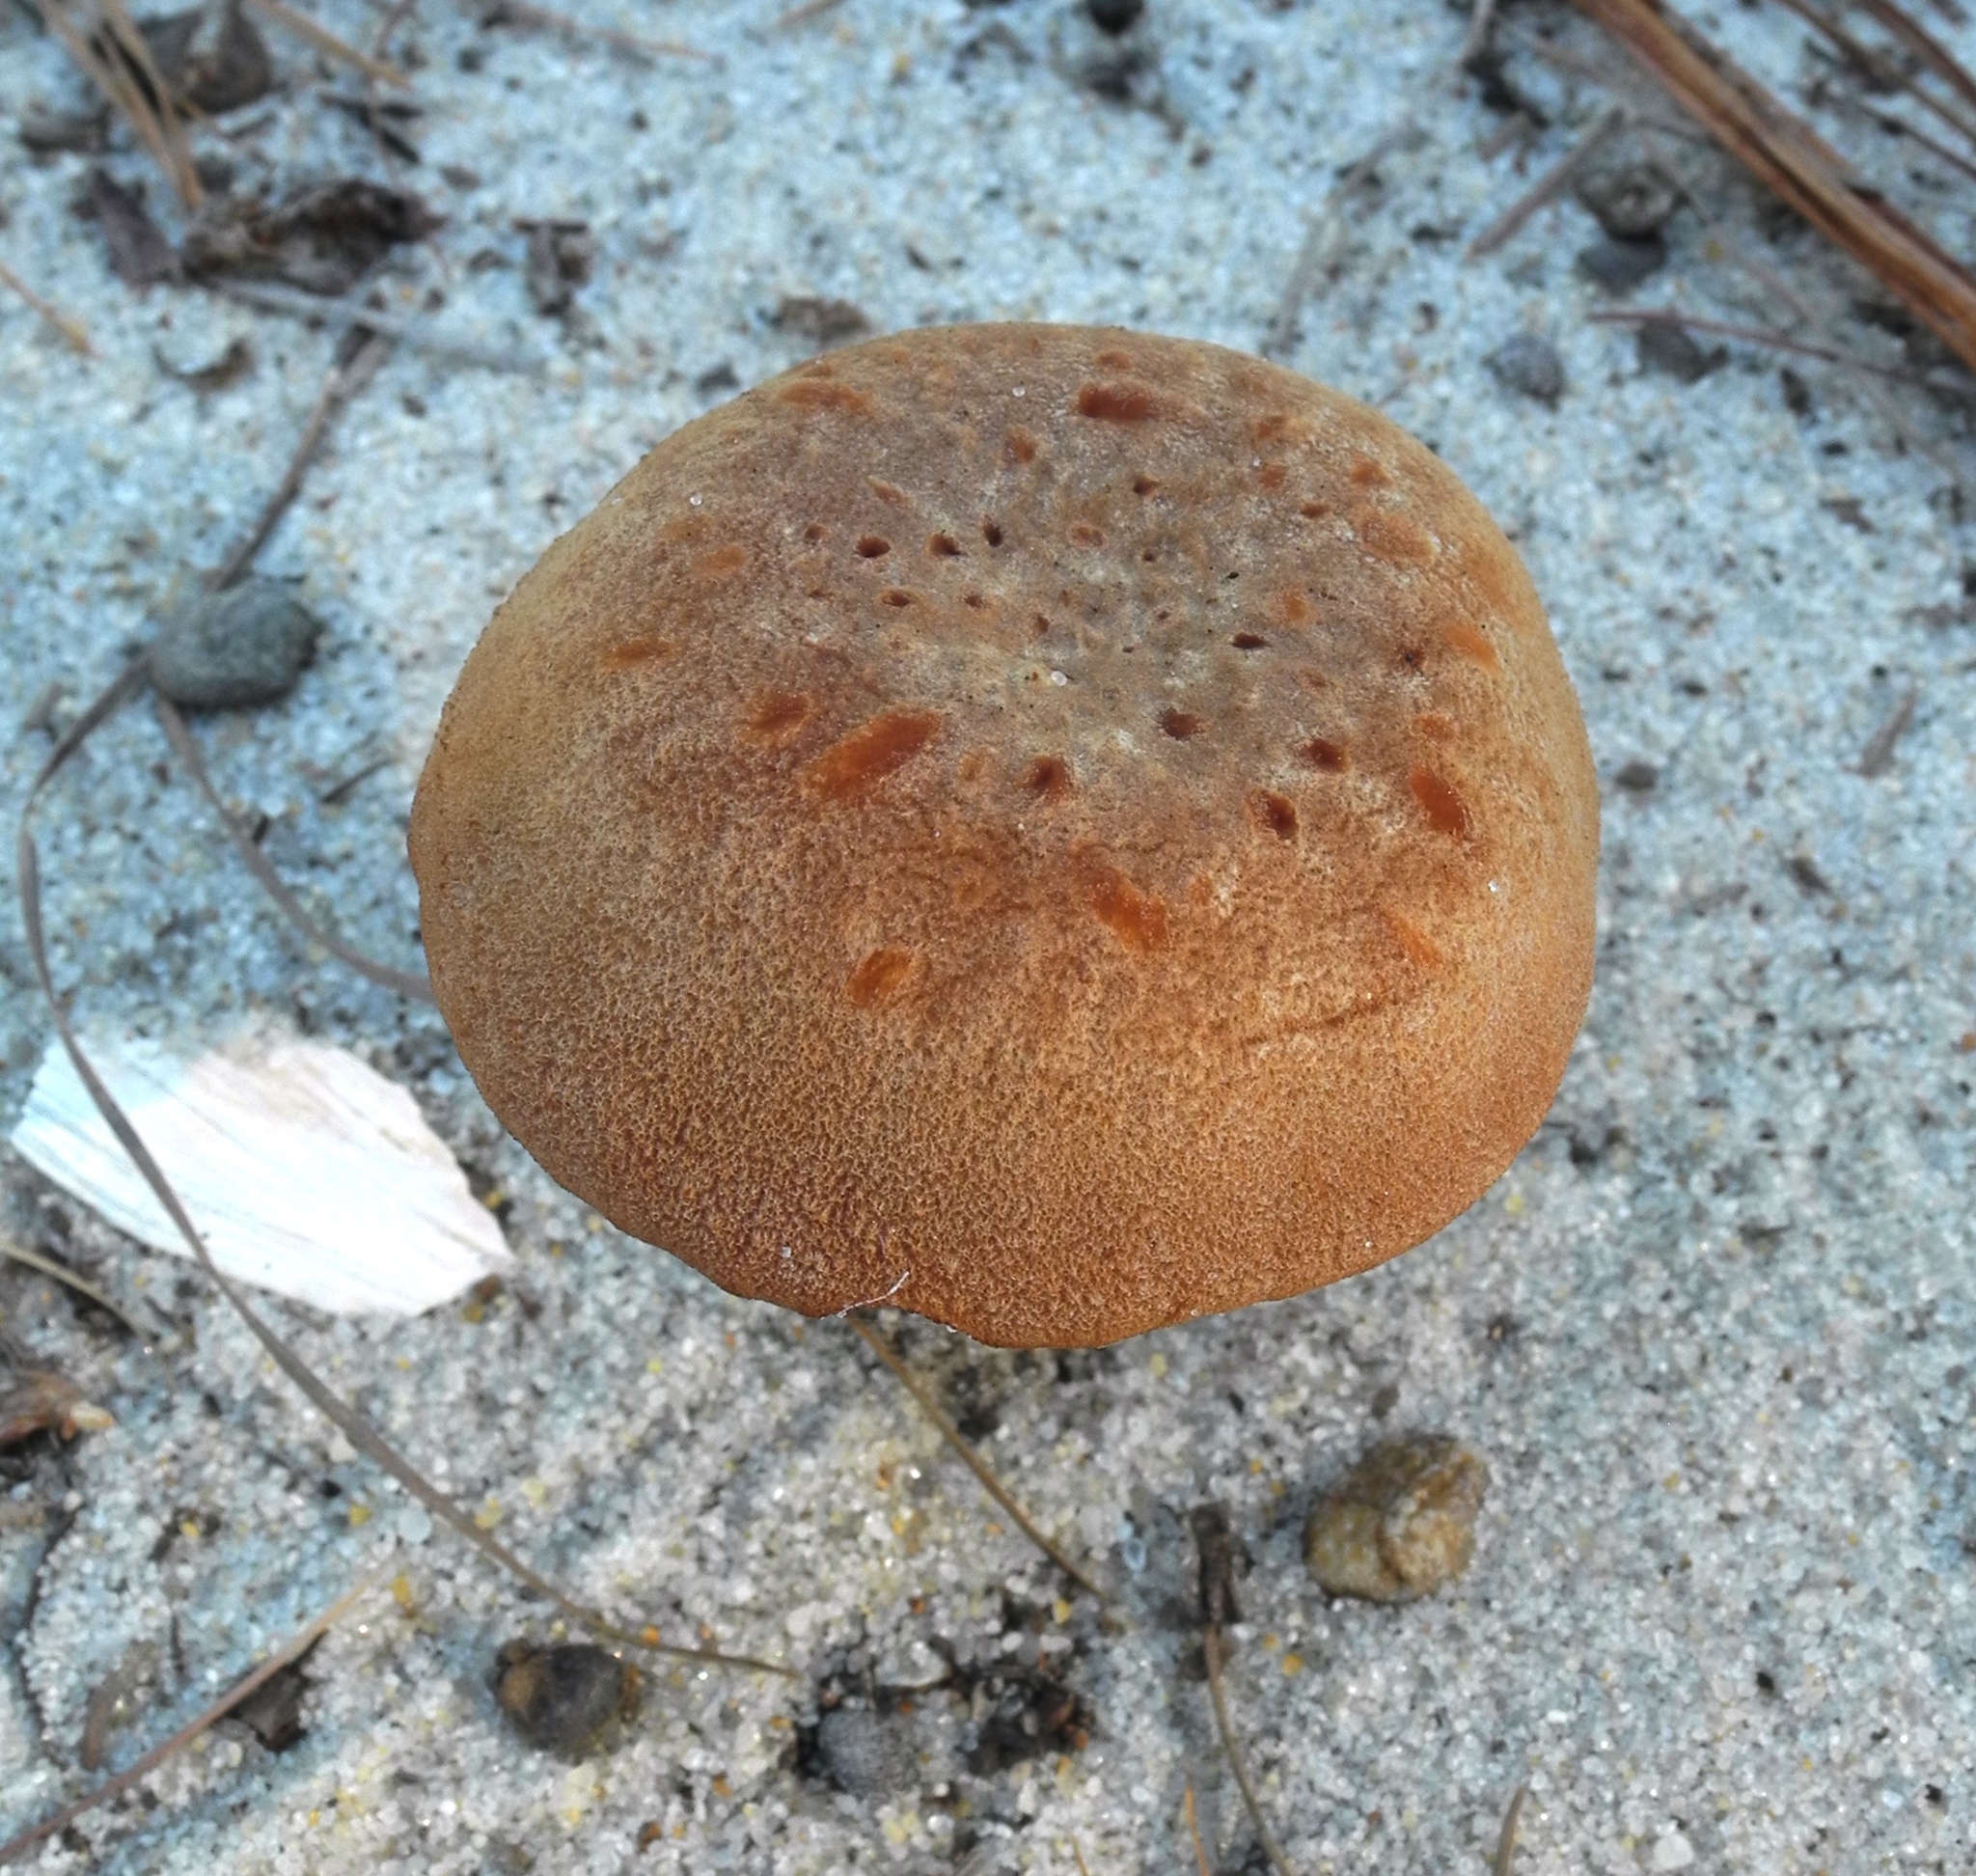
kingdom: Fungi
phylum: Basidiomycota
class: Agaricomycetes
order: Agaricales
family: Hydnangiaceae
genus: Laccaria
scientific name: Laccaria trullissata
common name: Sandy laccaria
